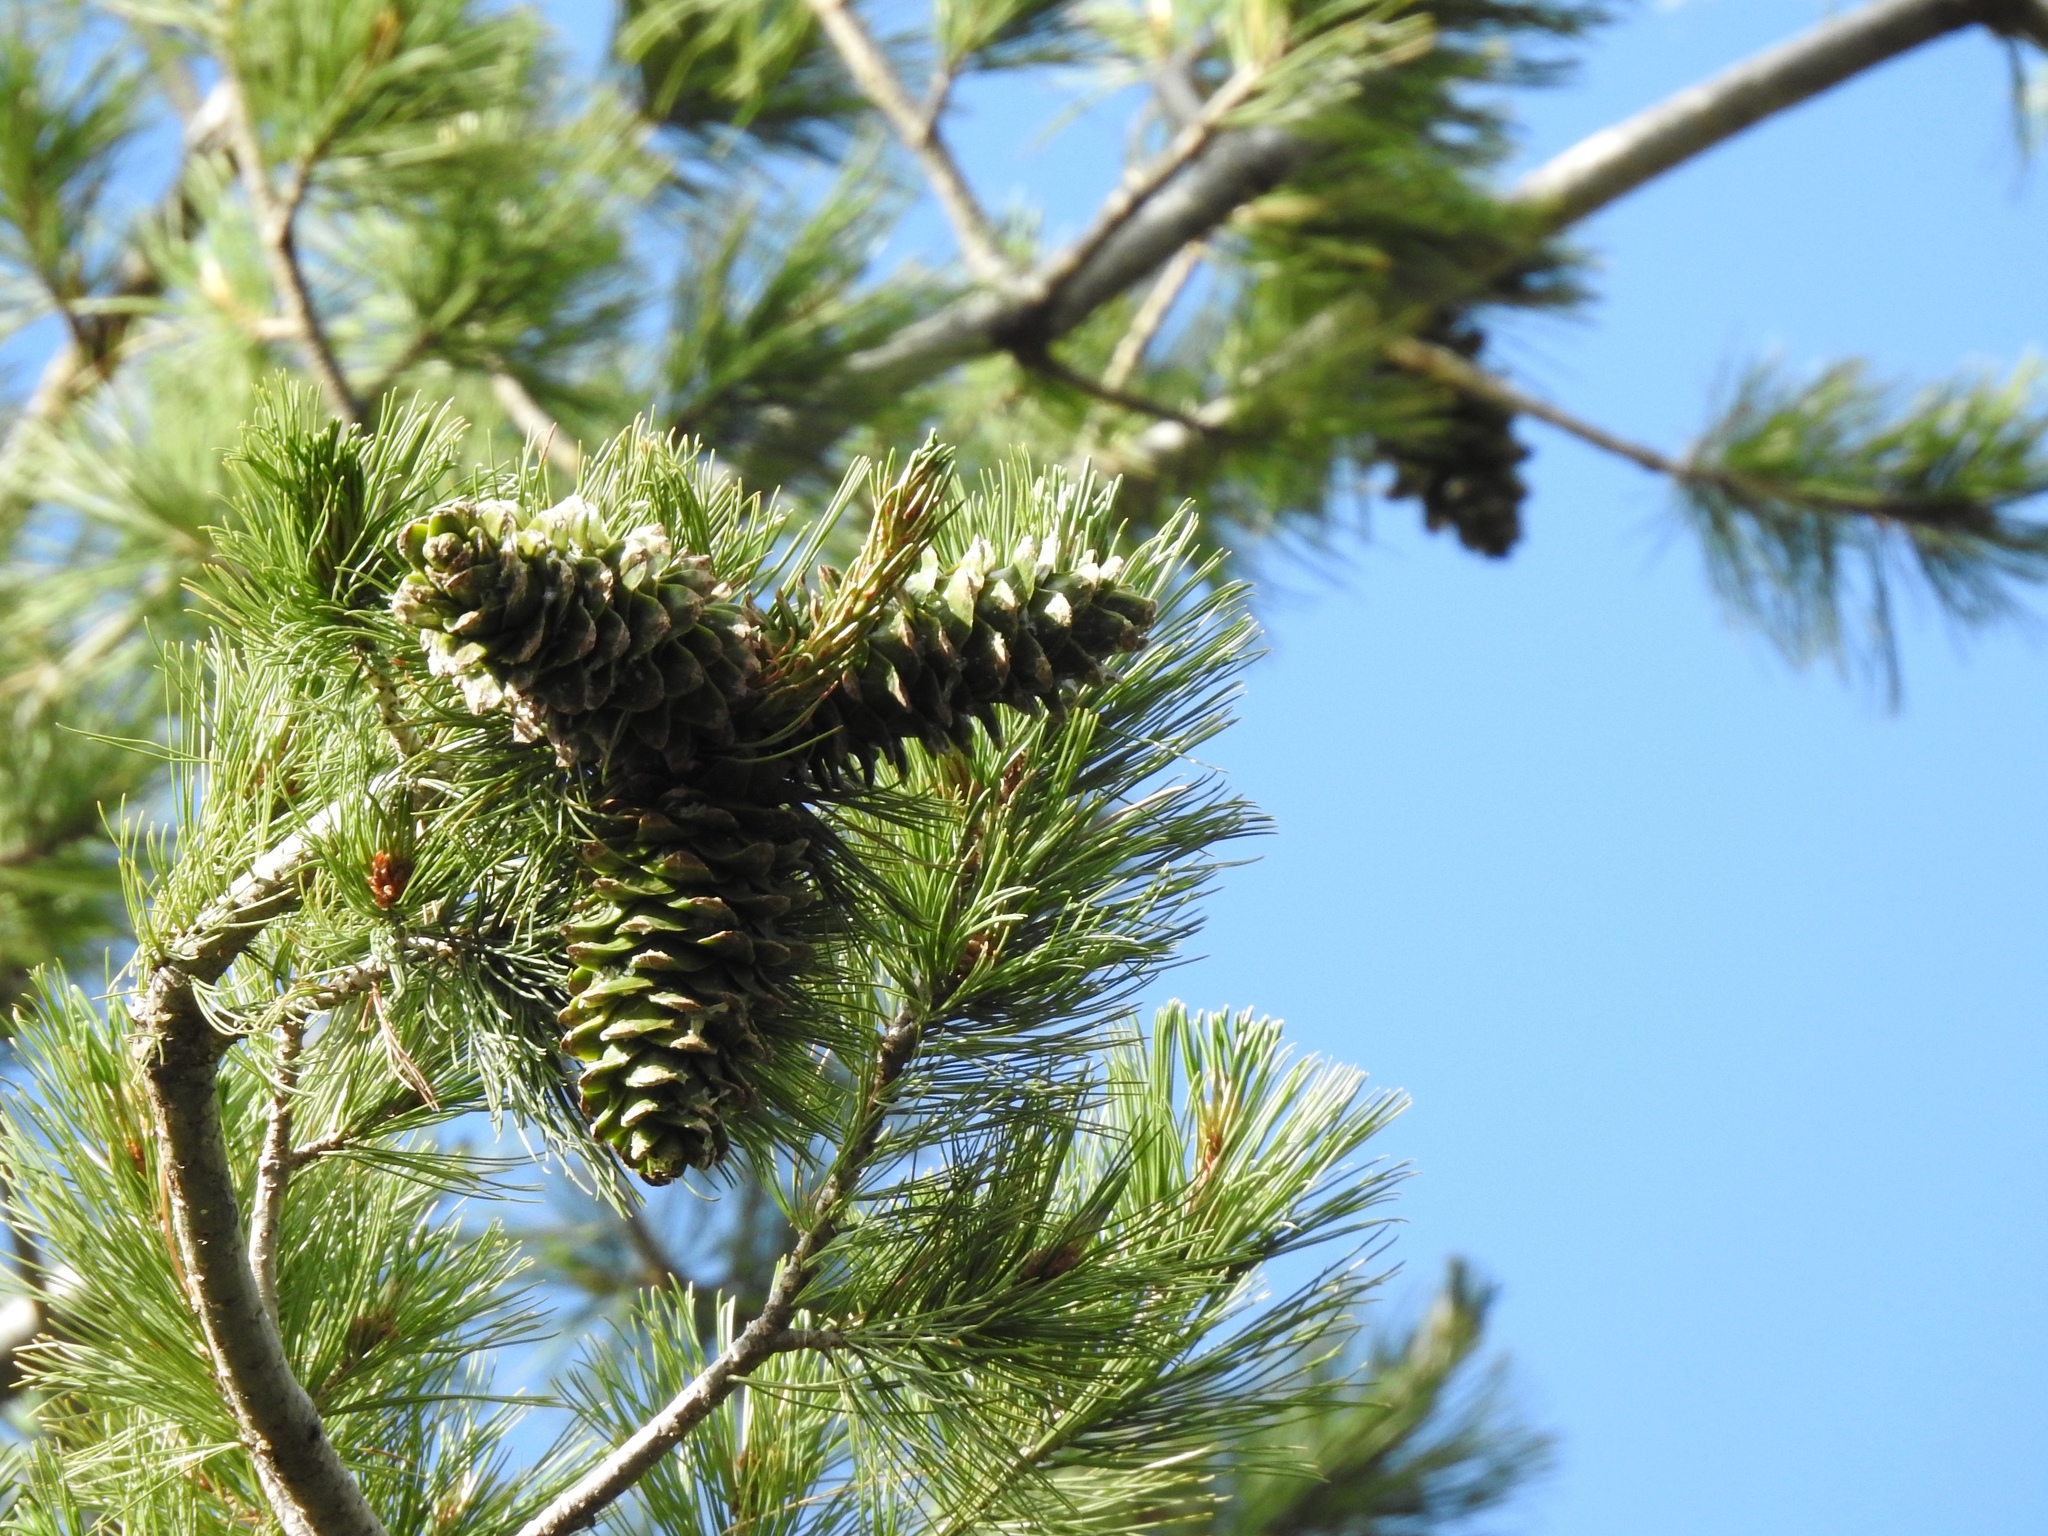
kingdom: Plantae
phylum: Tracheophyta
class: Pinopsida
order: Pinales
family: Pinaceae
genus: Pinus
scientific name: Pinus strobiformis
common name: Southwestern white pine
